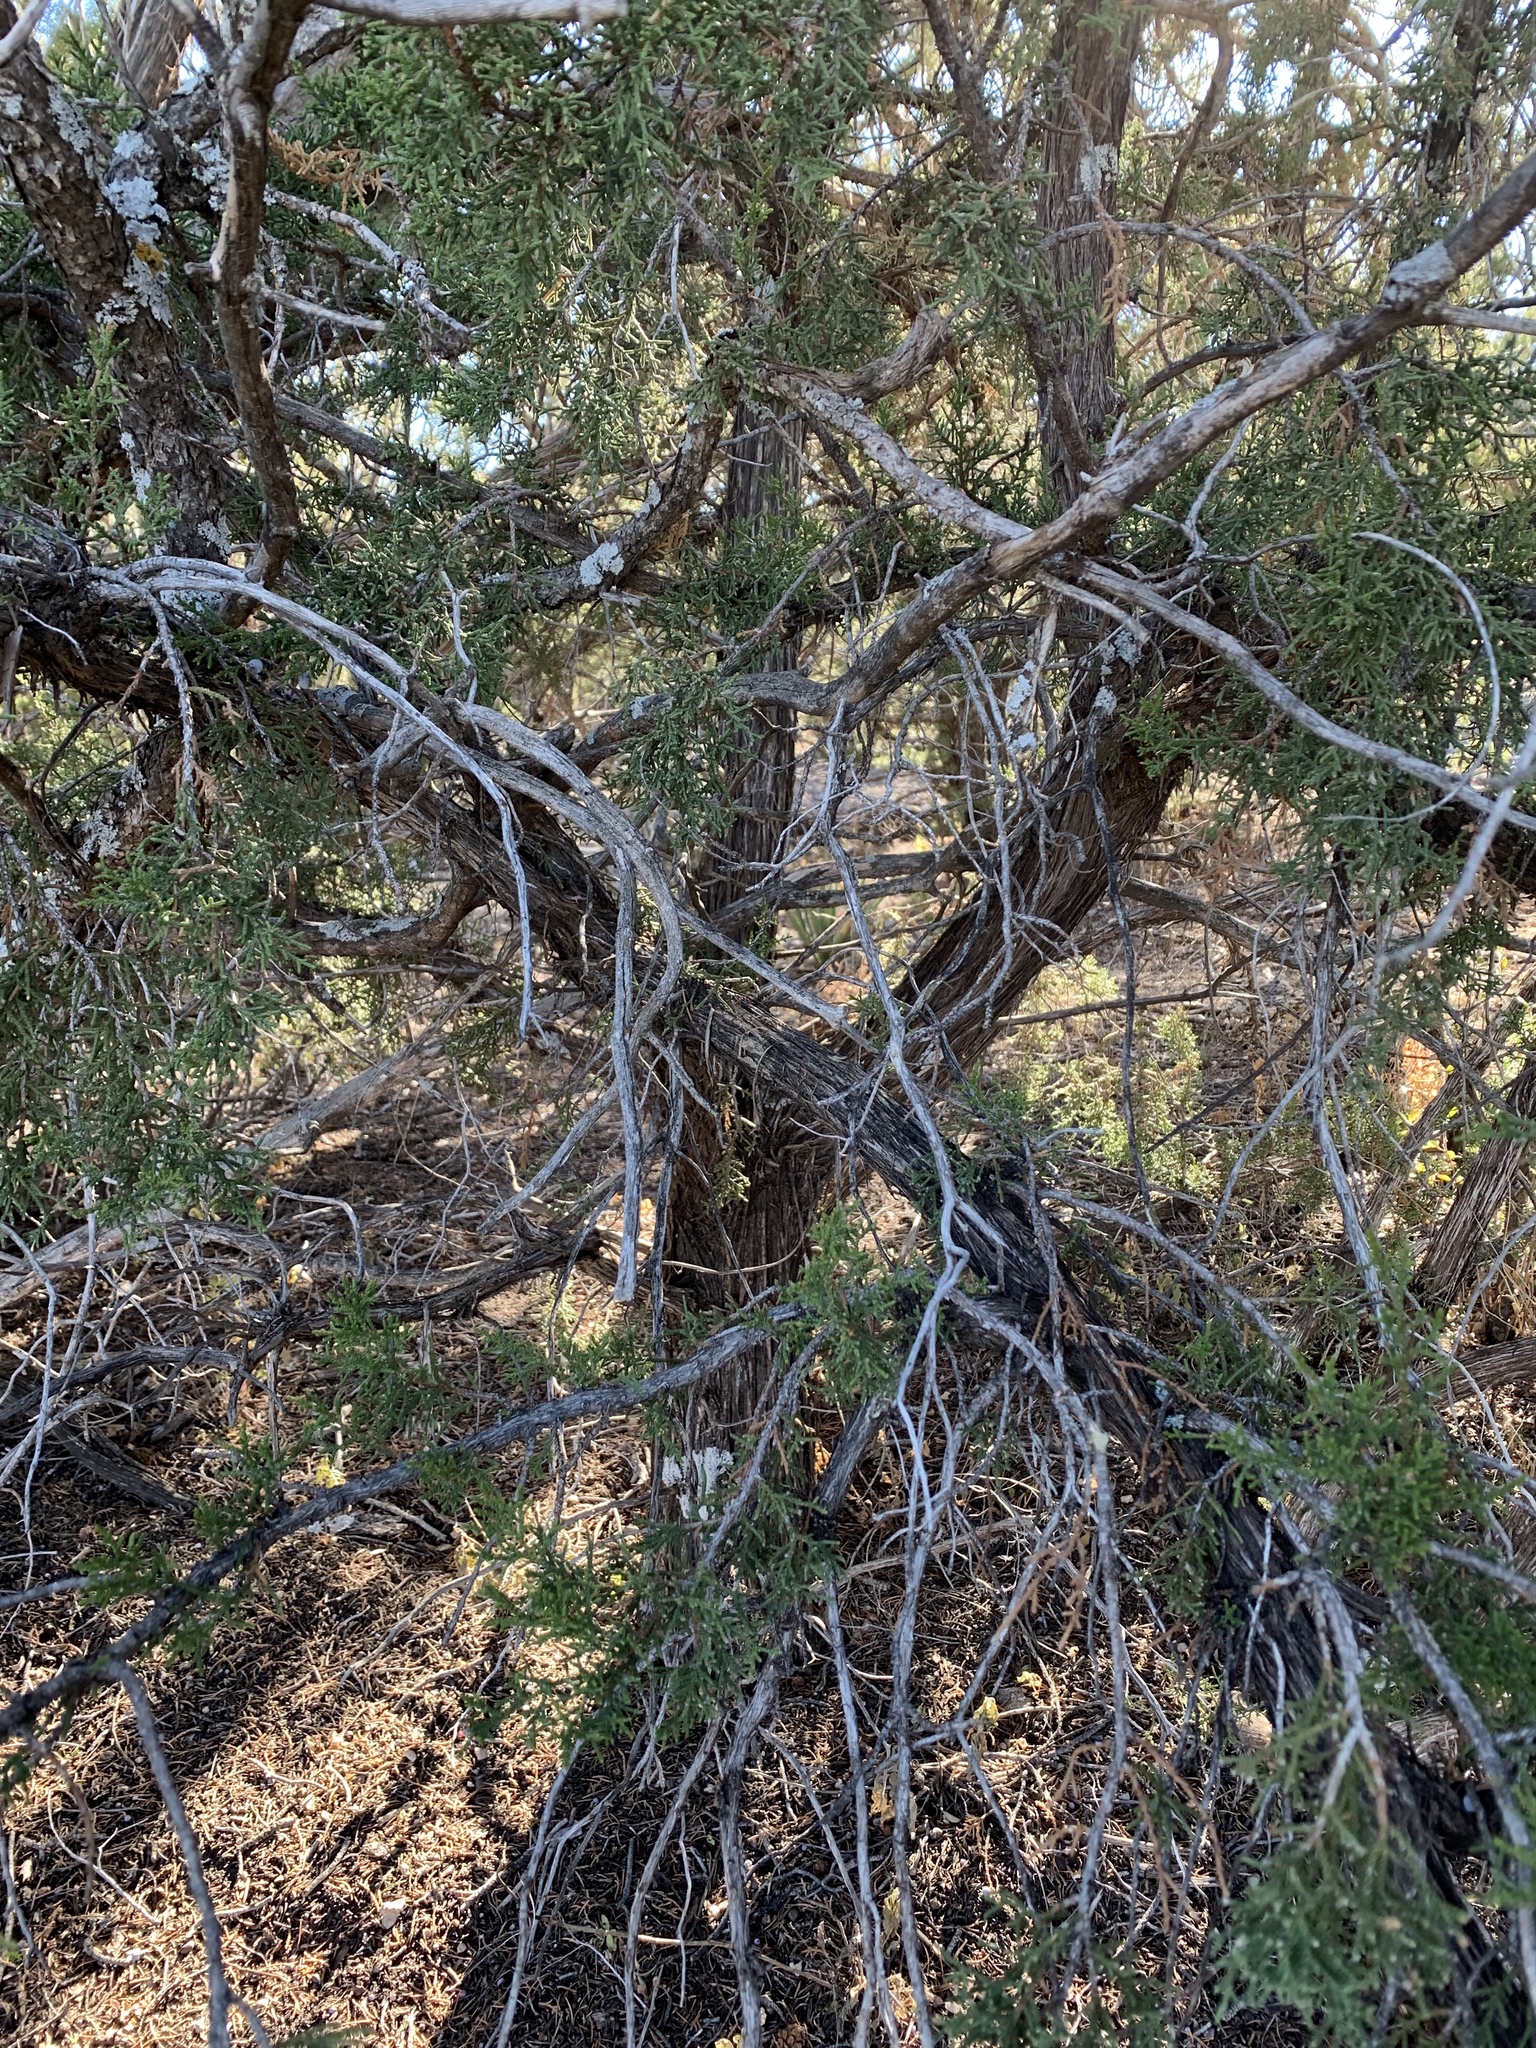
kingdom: Plantae
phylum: Tracheophyta
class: Pinopsida
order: Pinales
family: Cupressaceae
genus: Juniperus
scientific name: Juniperus monosperma
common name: One-seed juniper
